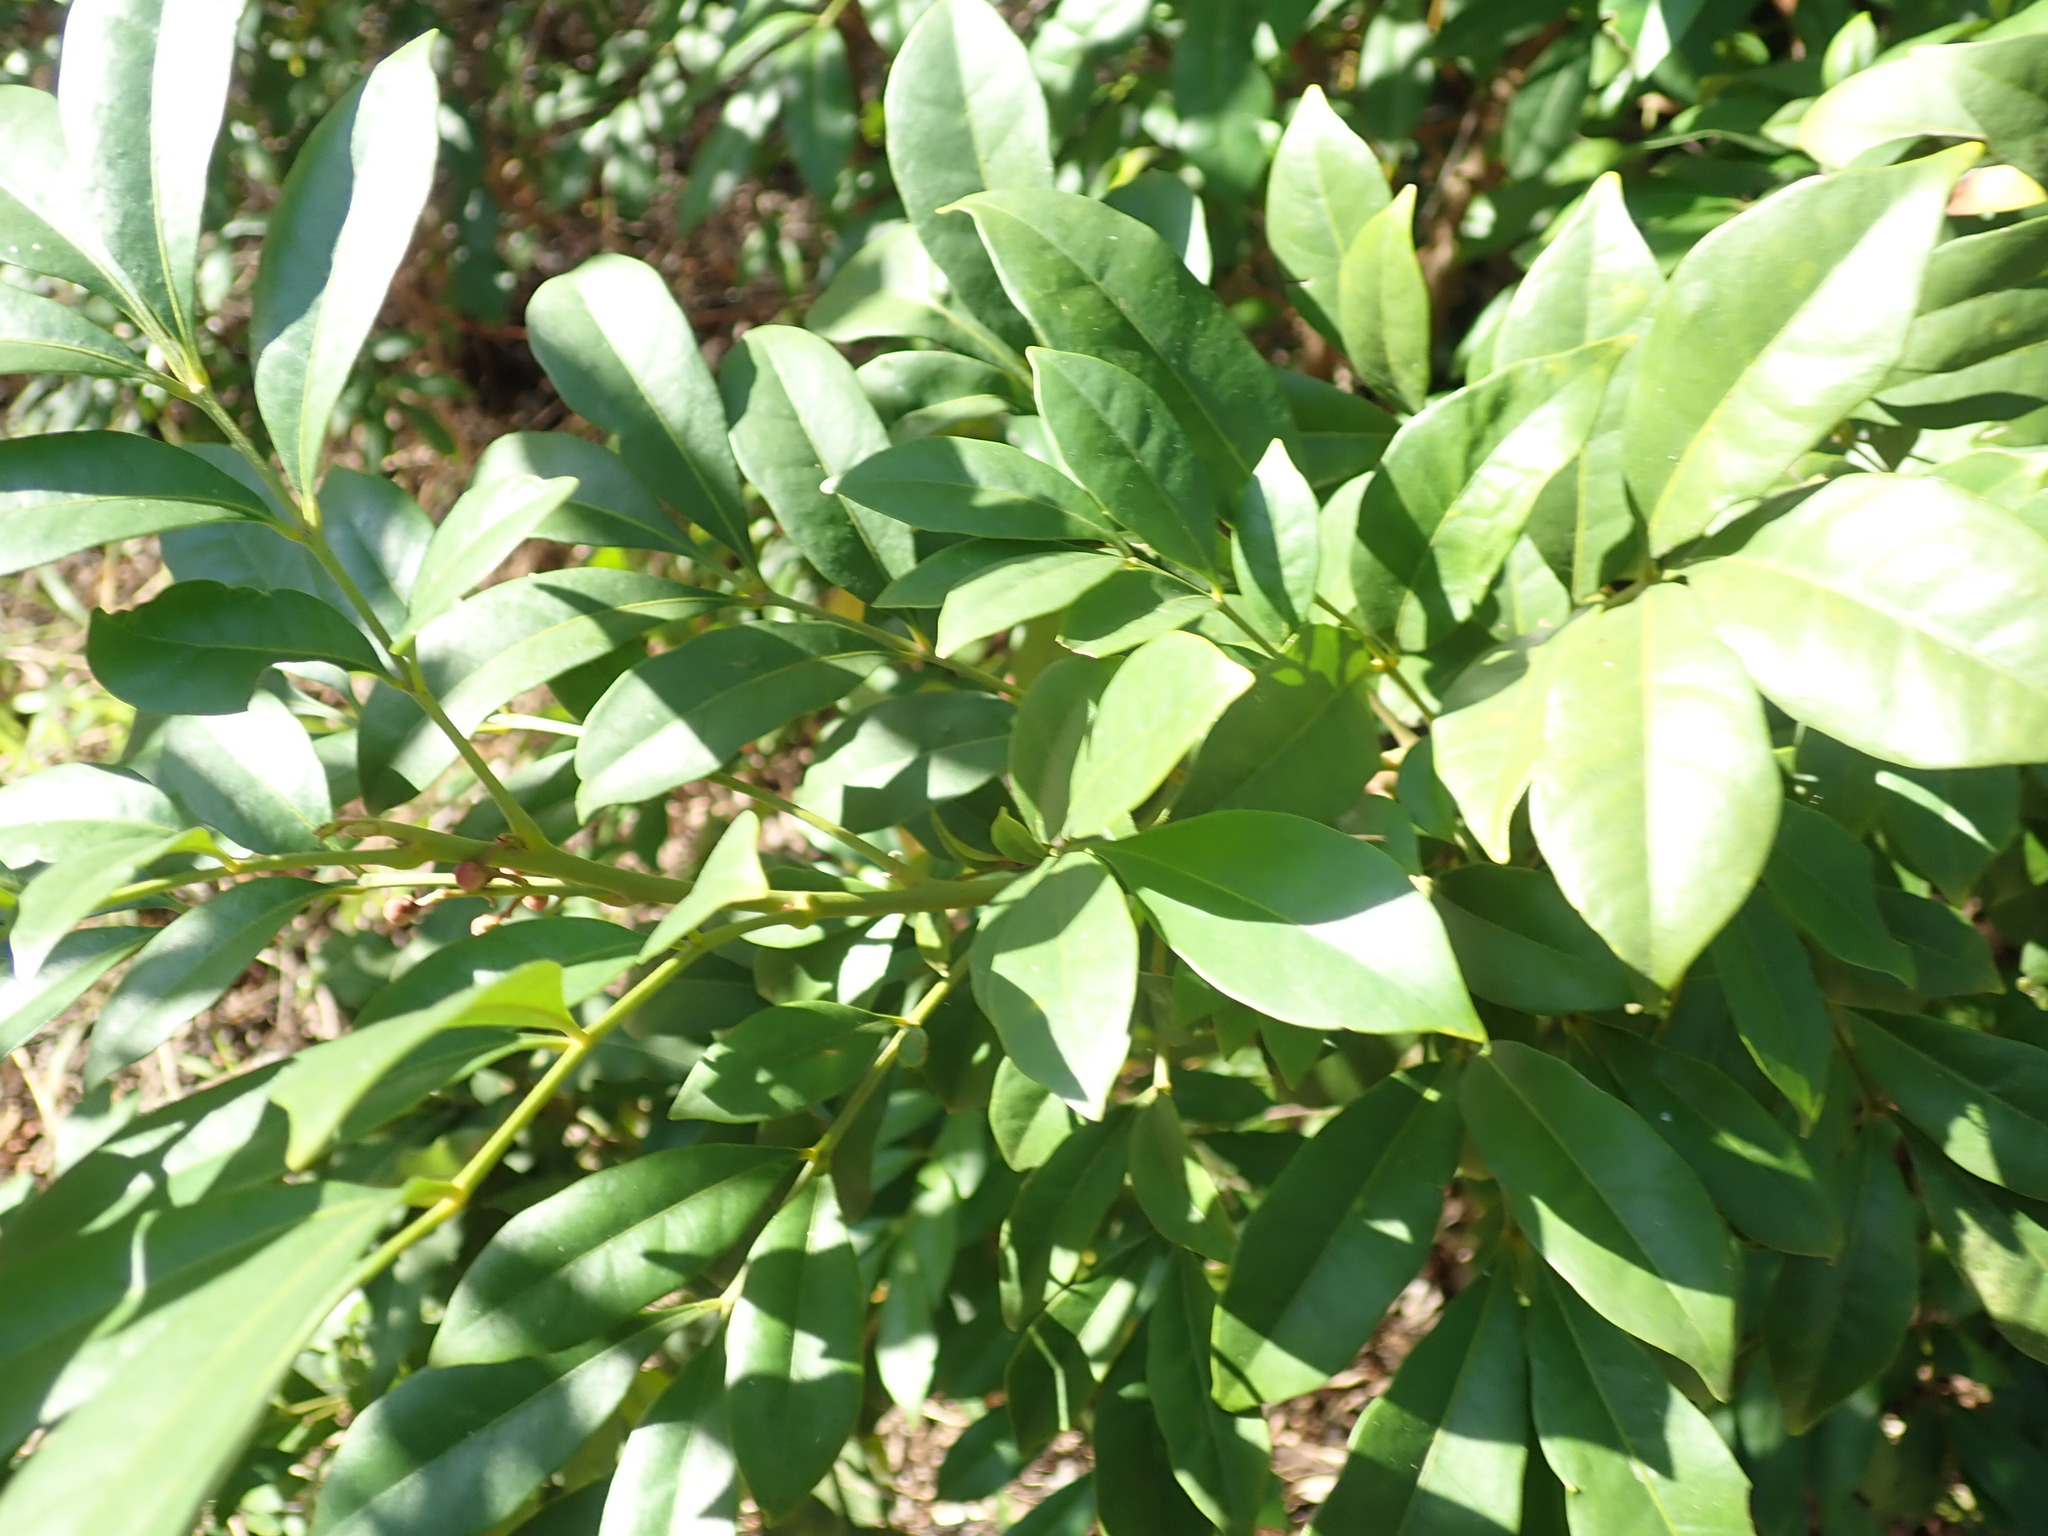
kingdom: Plantae
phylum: Tracheophyta
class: Magnoliopsida
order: Sapindales
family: Meliaceae
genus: Synoum
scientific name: Synoum glandulosum
